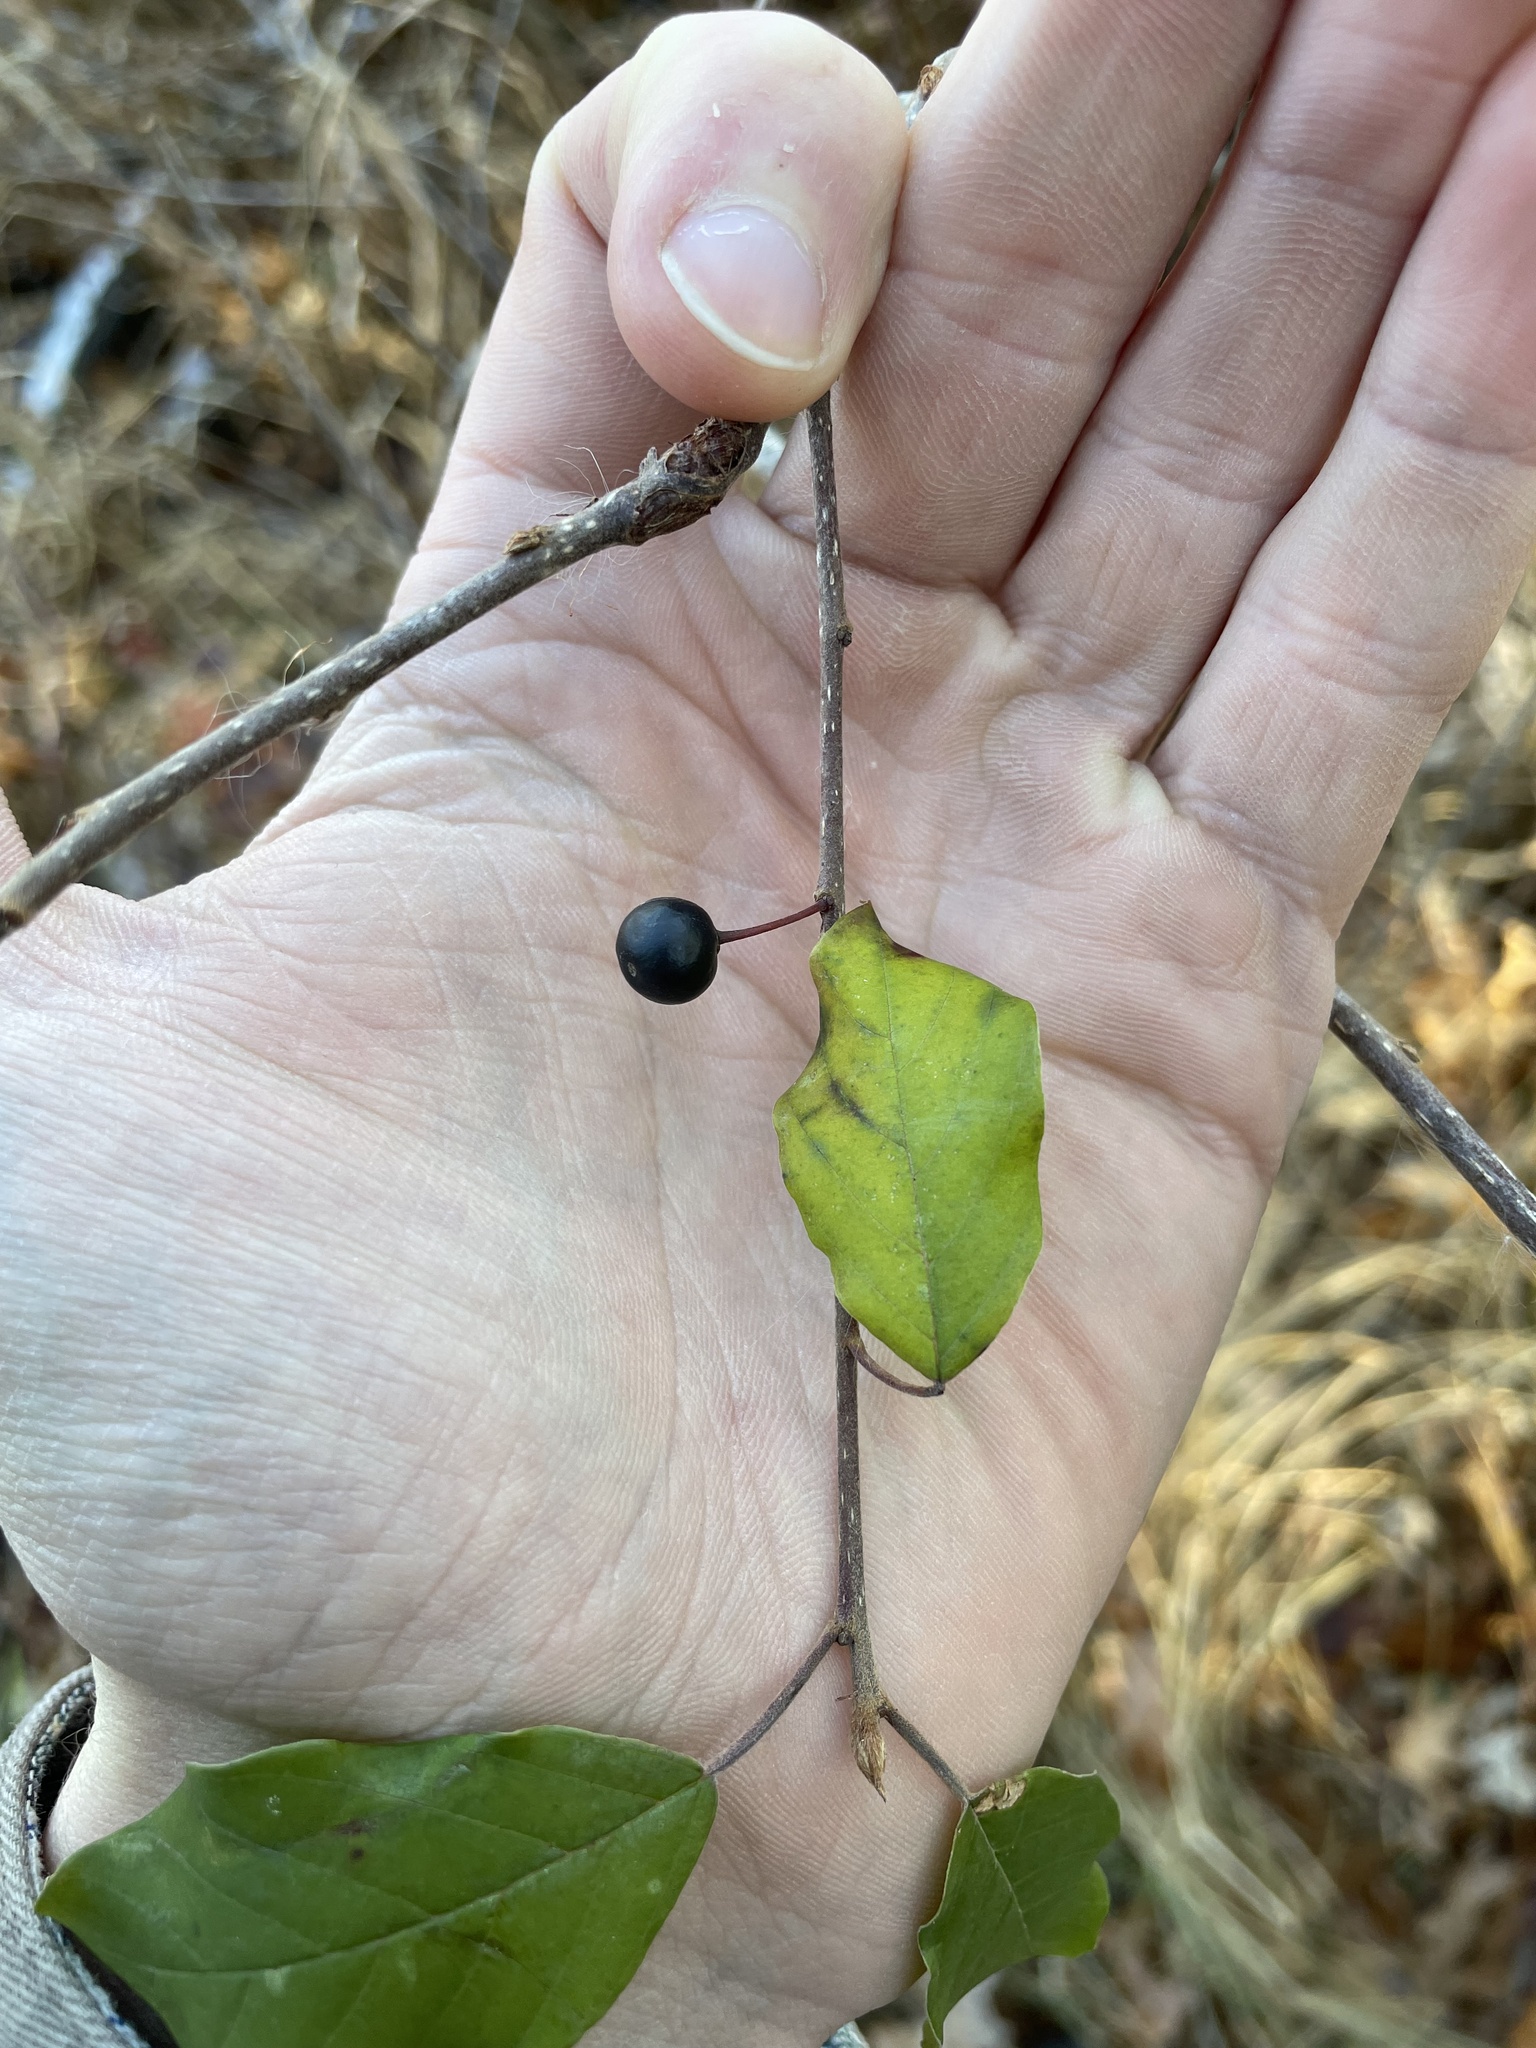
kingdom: Plantae
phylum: Tracheophyta
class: Magnoliopsida
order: Rosales
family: Rhamnaceae
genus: Frangula
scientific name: Frangula alnus
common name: Alder buckthorn
